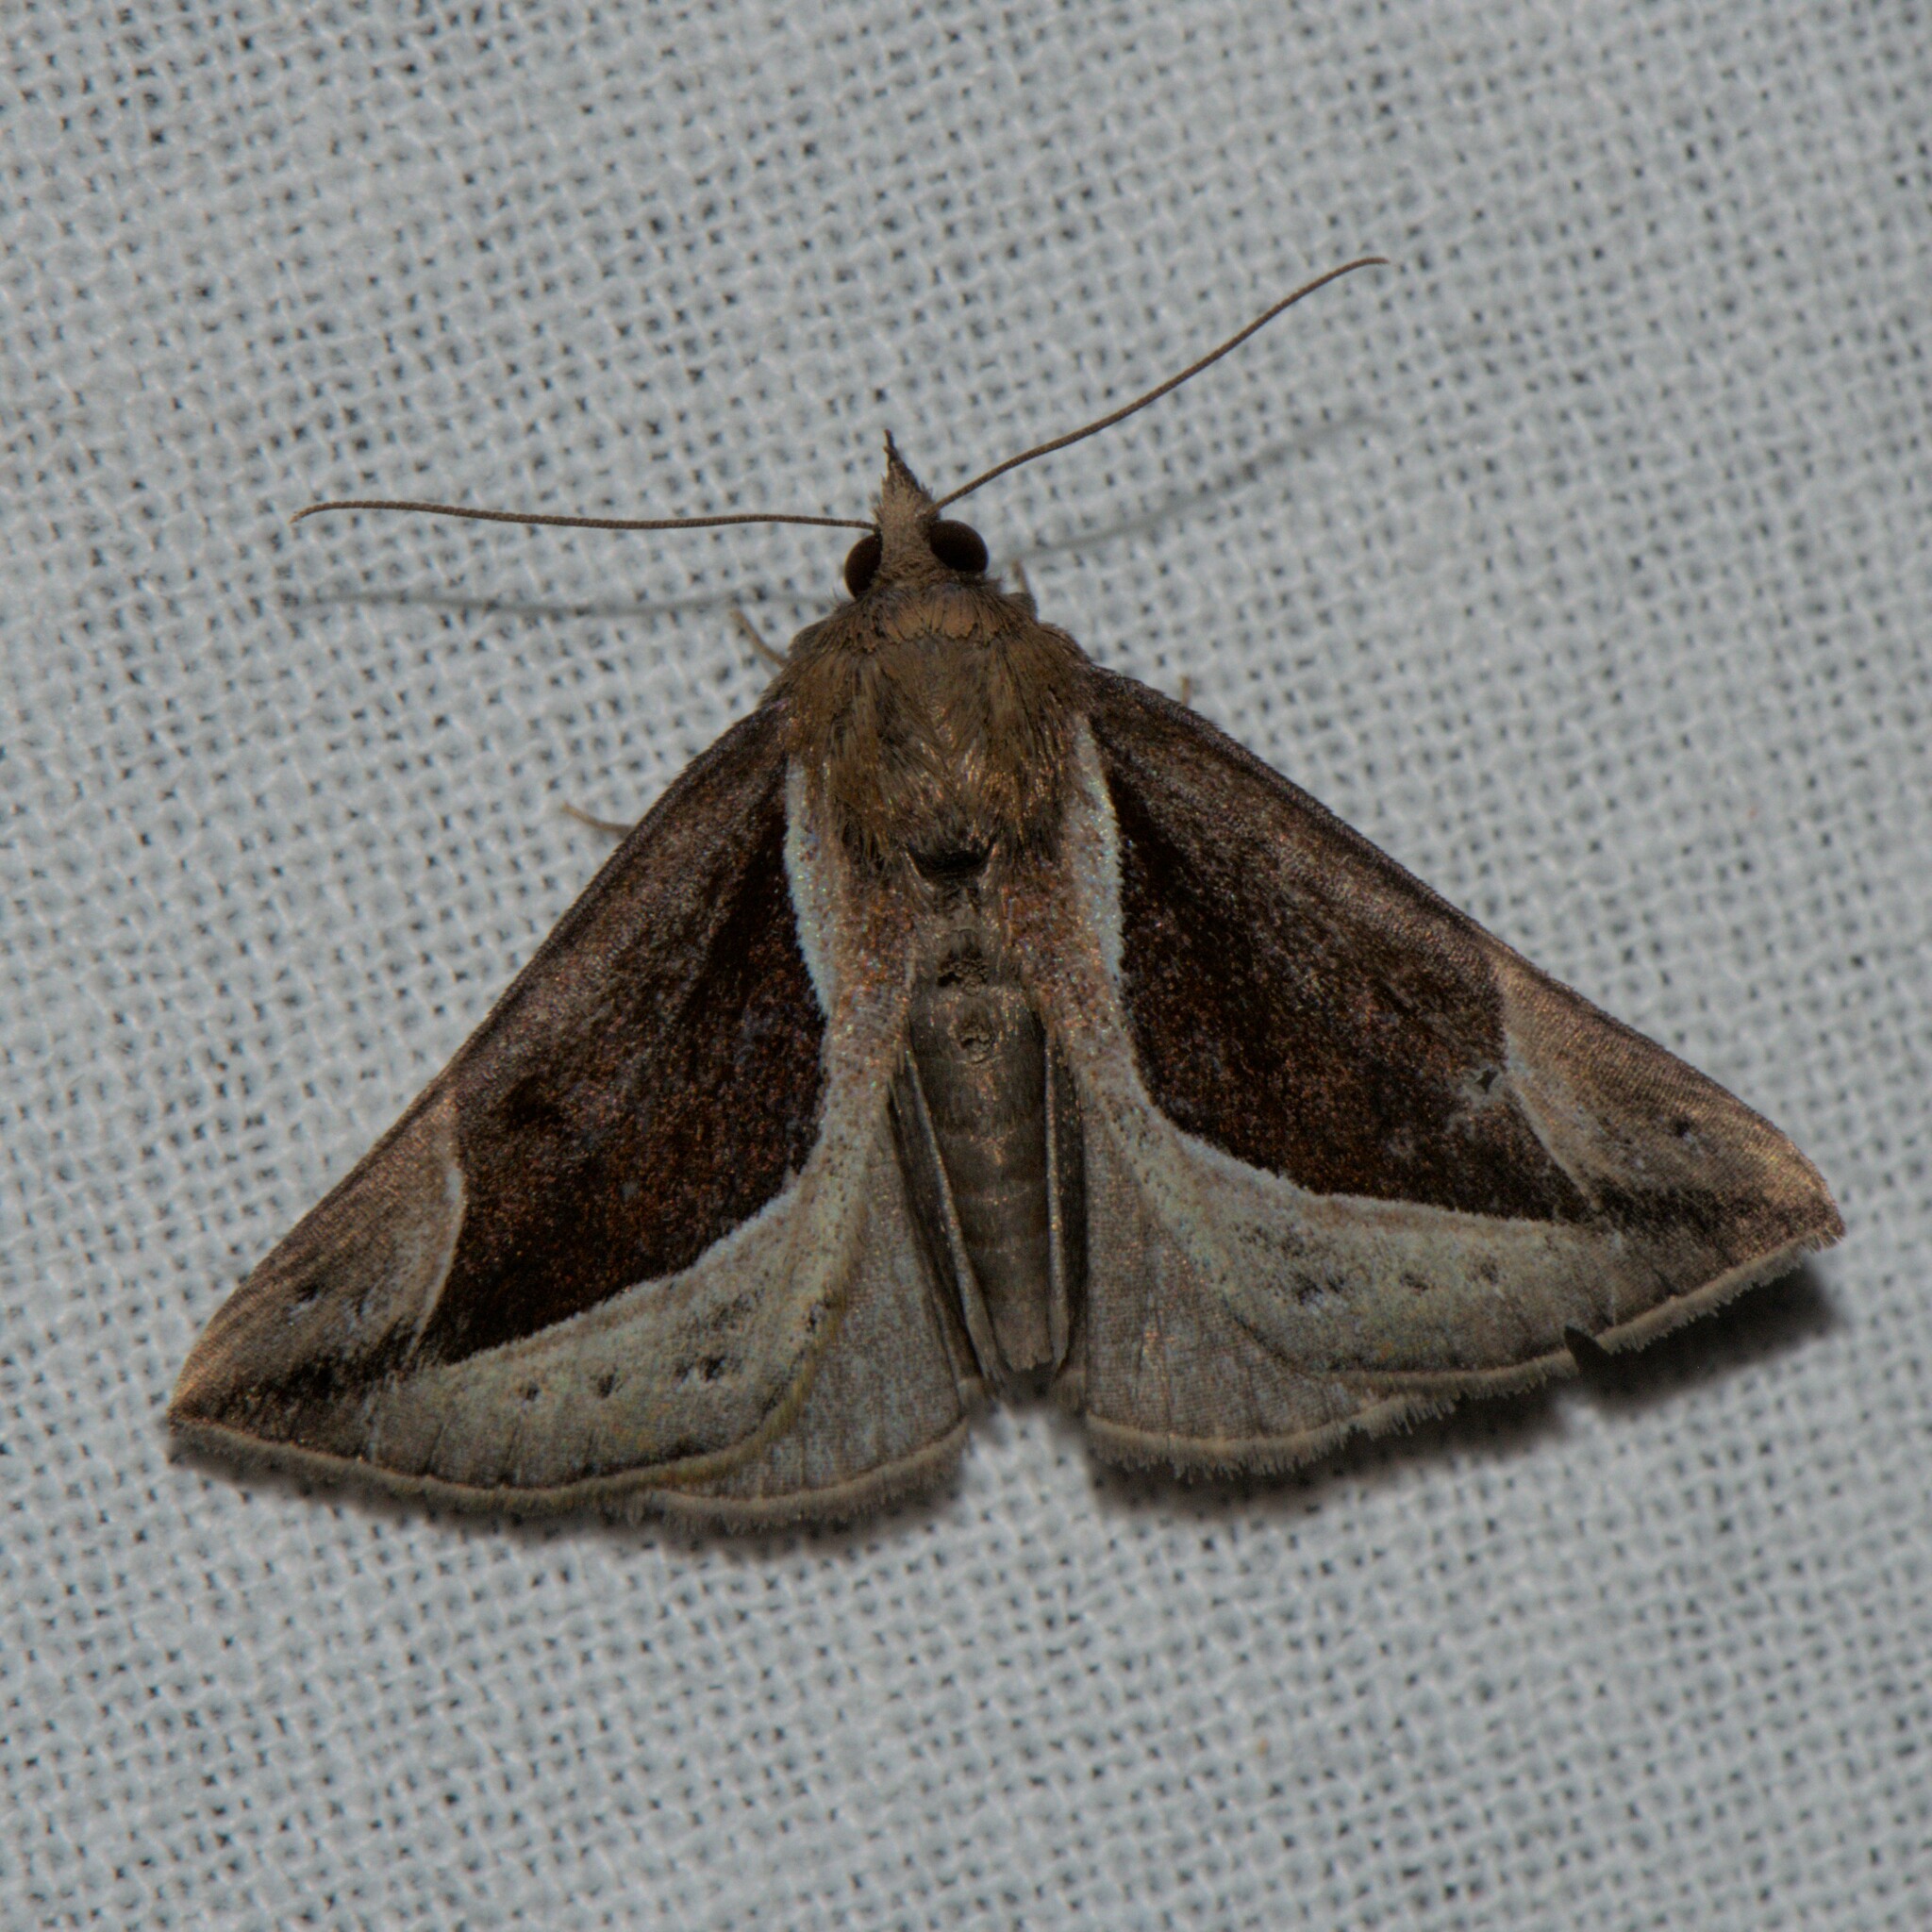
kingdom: Animalia
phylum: Arthropoda
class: Insecta
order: Lepidoptera
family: Erebidae
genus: Hypena
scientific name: Hypena rhombalis
